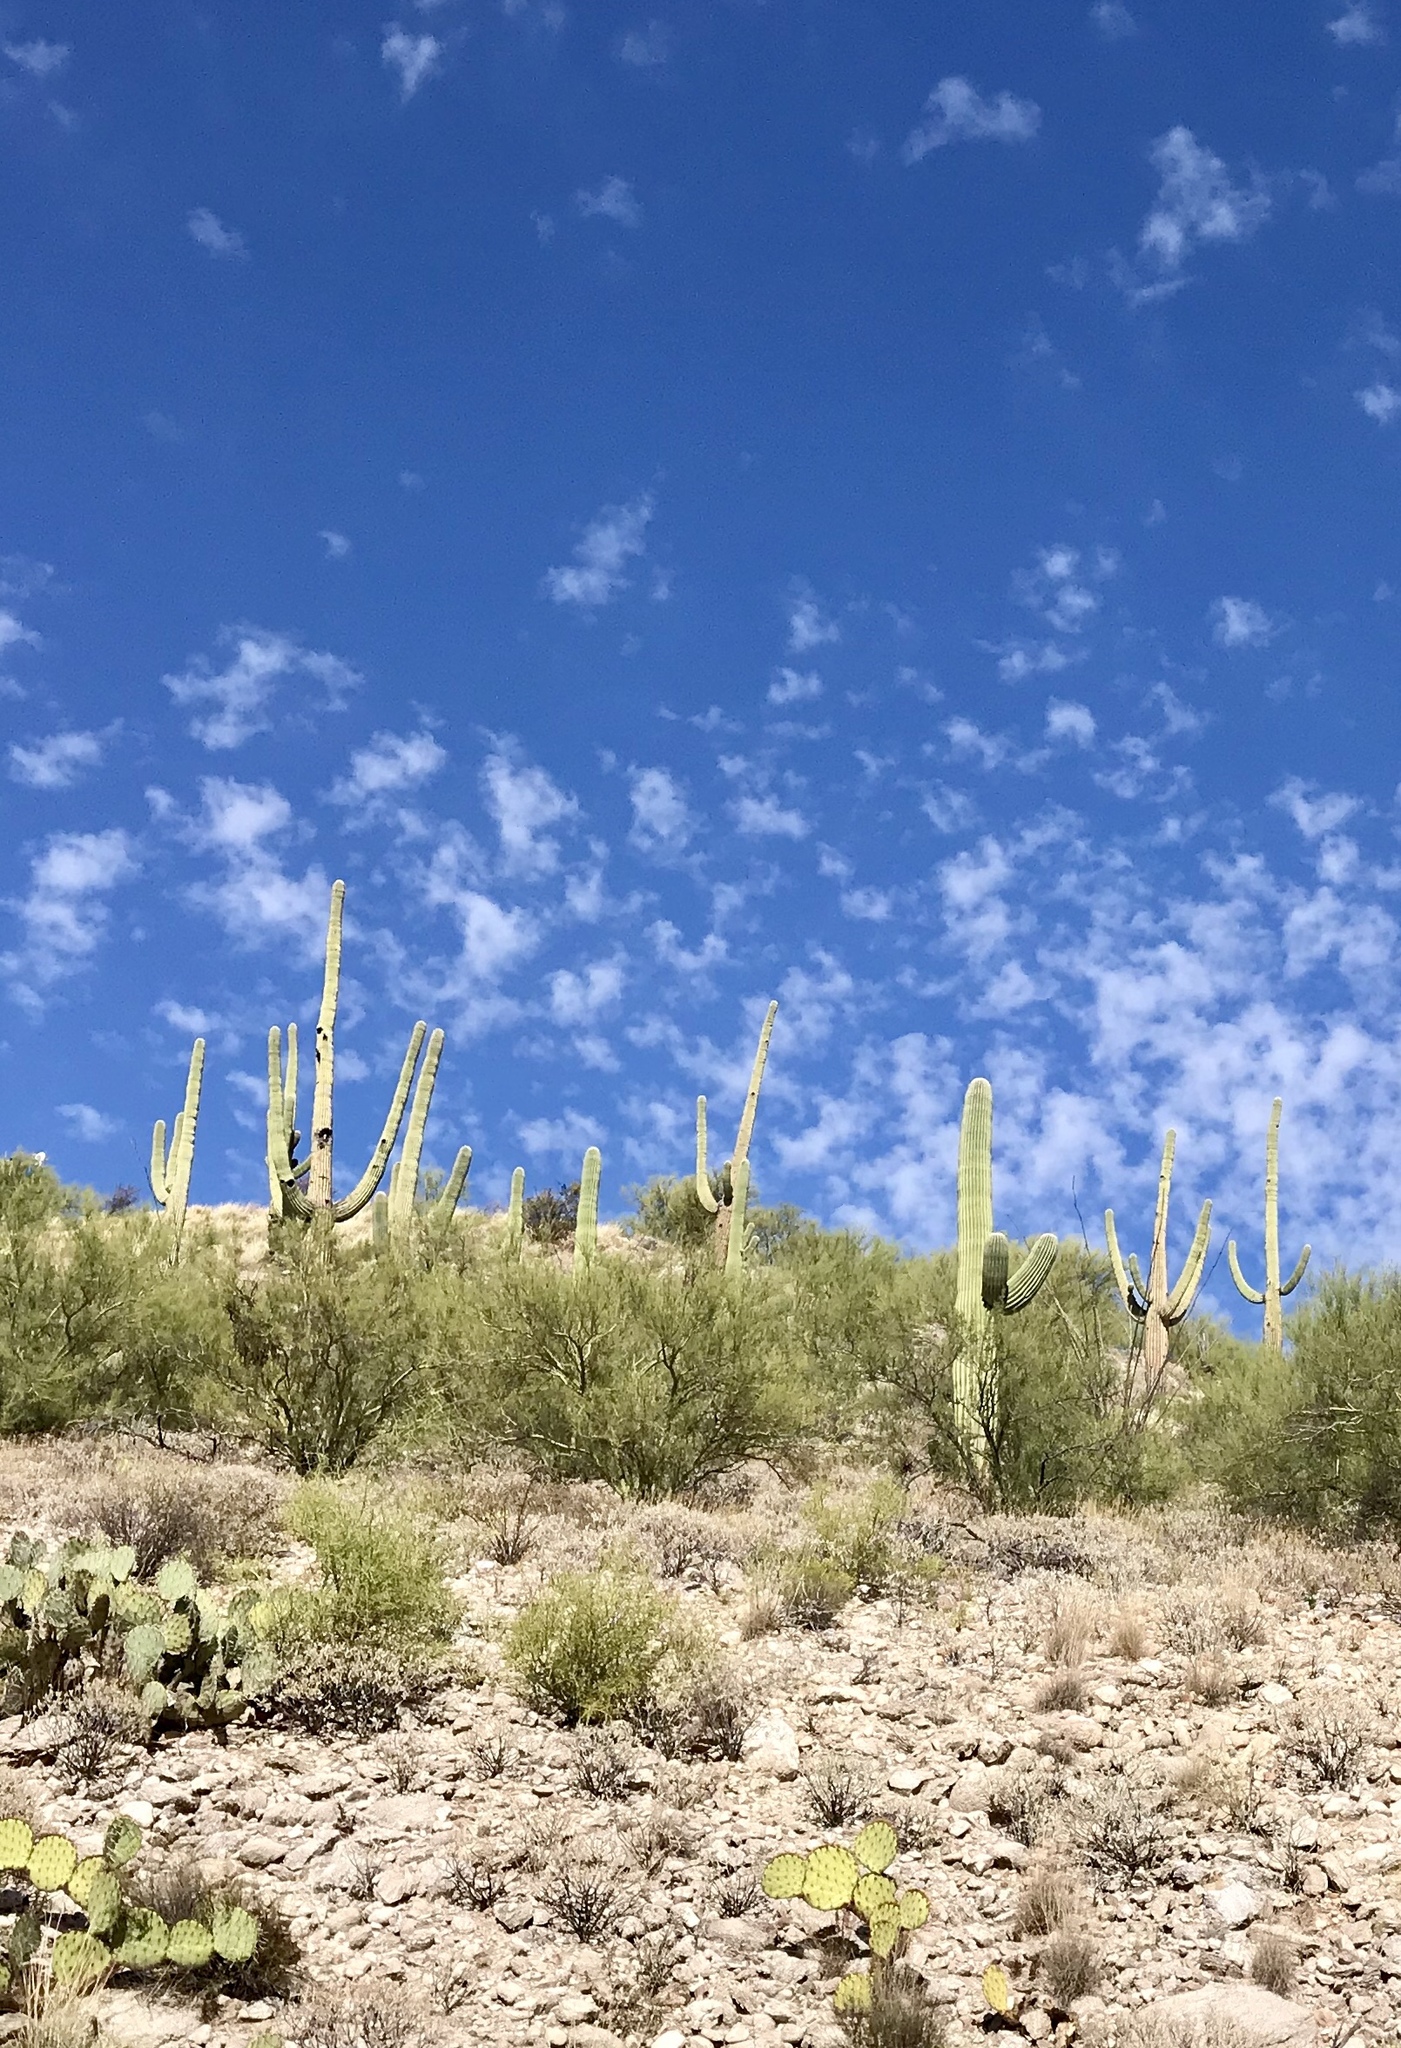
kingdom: Plantae
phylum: Tracheophyta
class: Magnoliopsida
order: Caryophyllales
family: Cactaceae
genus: Carnegiea
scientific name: Carnegiea gigantea
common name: Saguaro
